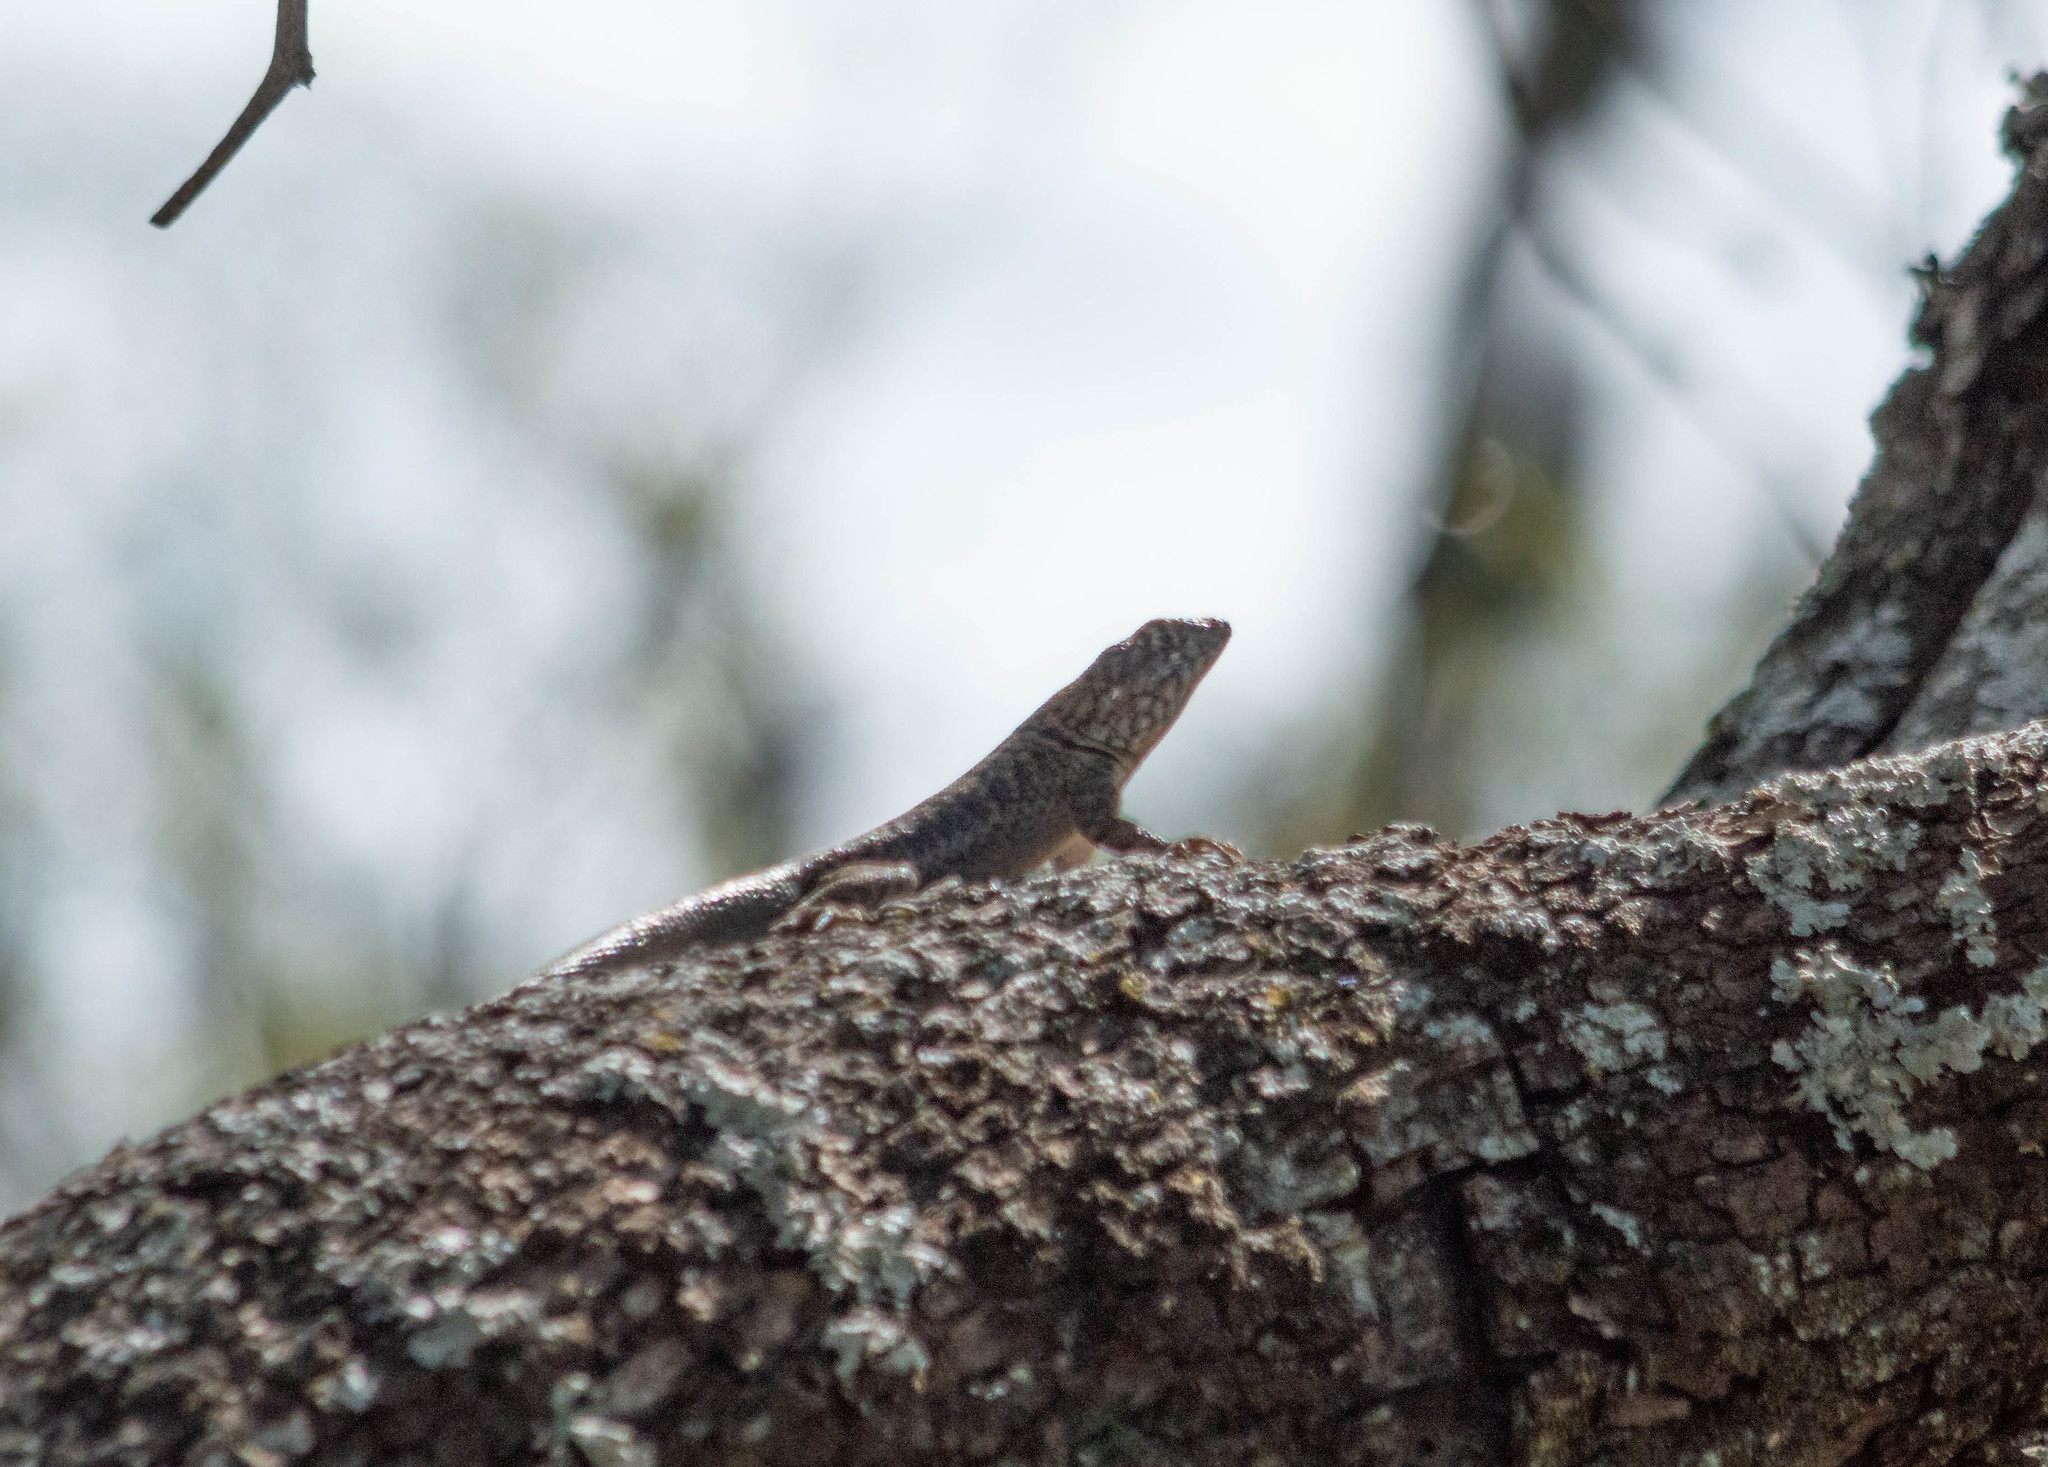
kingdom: Animalia
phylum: Chordata
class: Squamata
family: Tropiduridae
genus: Tropidurus
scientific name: Tropidurus etheridgei
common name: Etheridge's lava lizard
